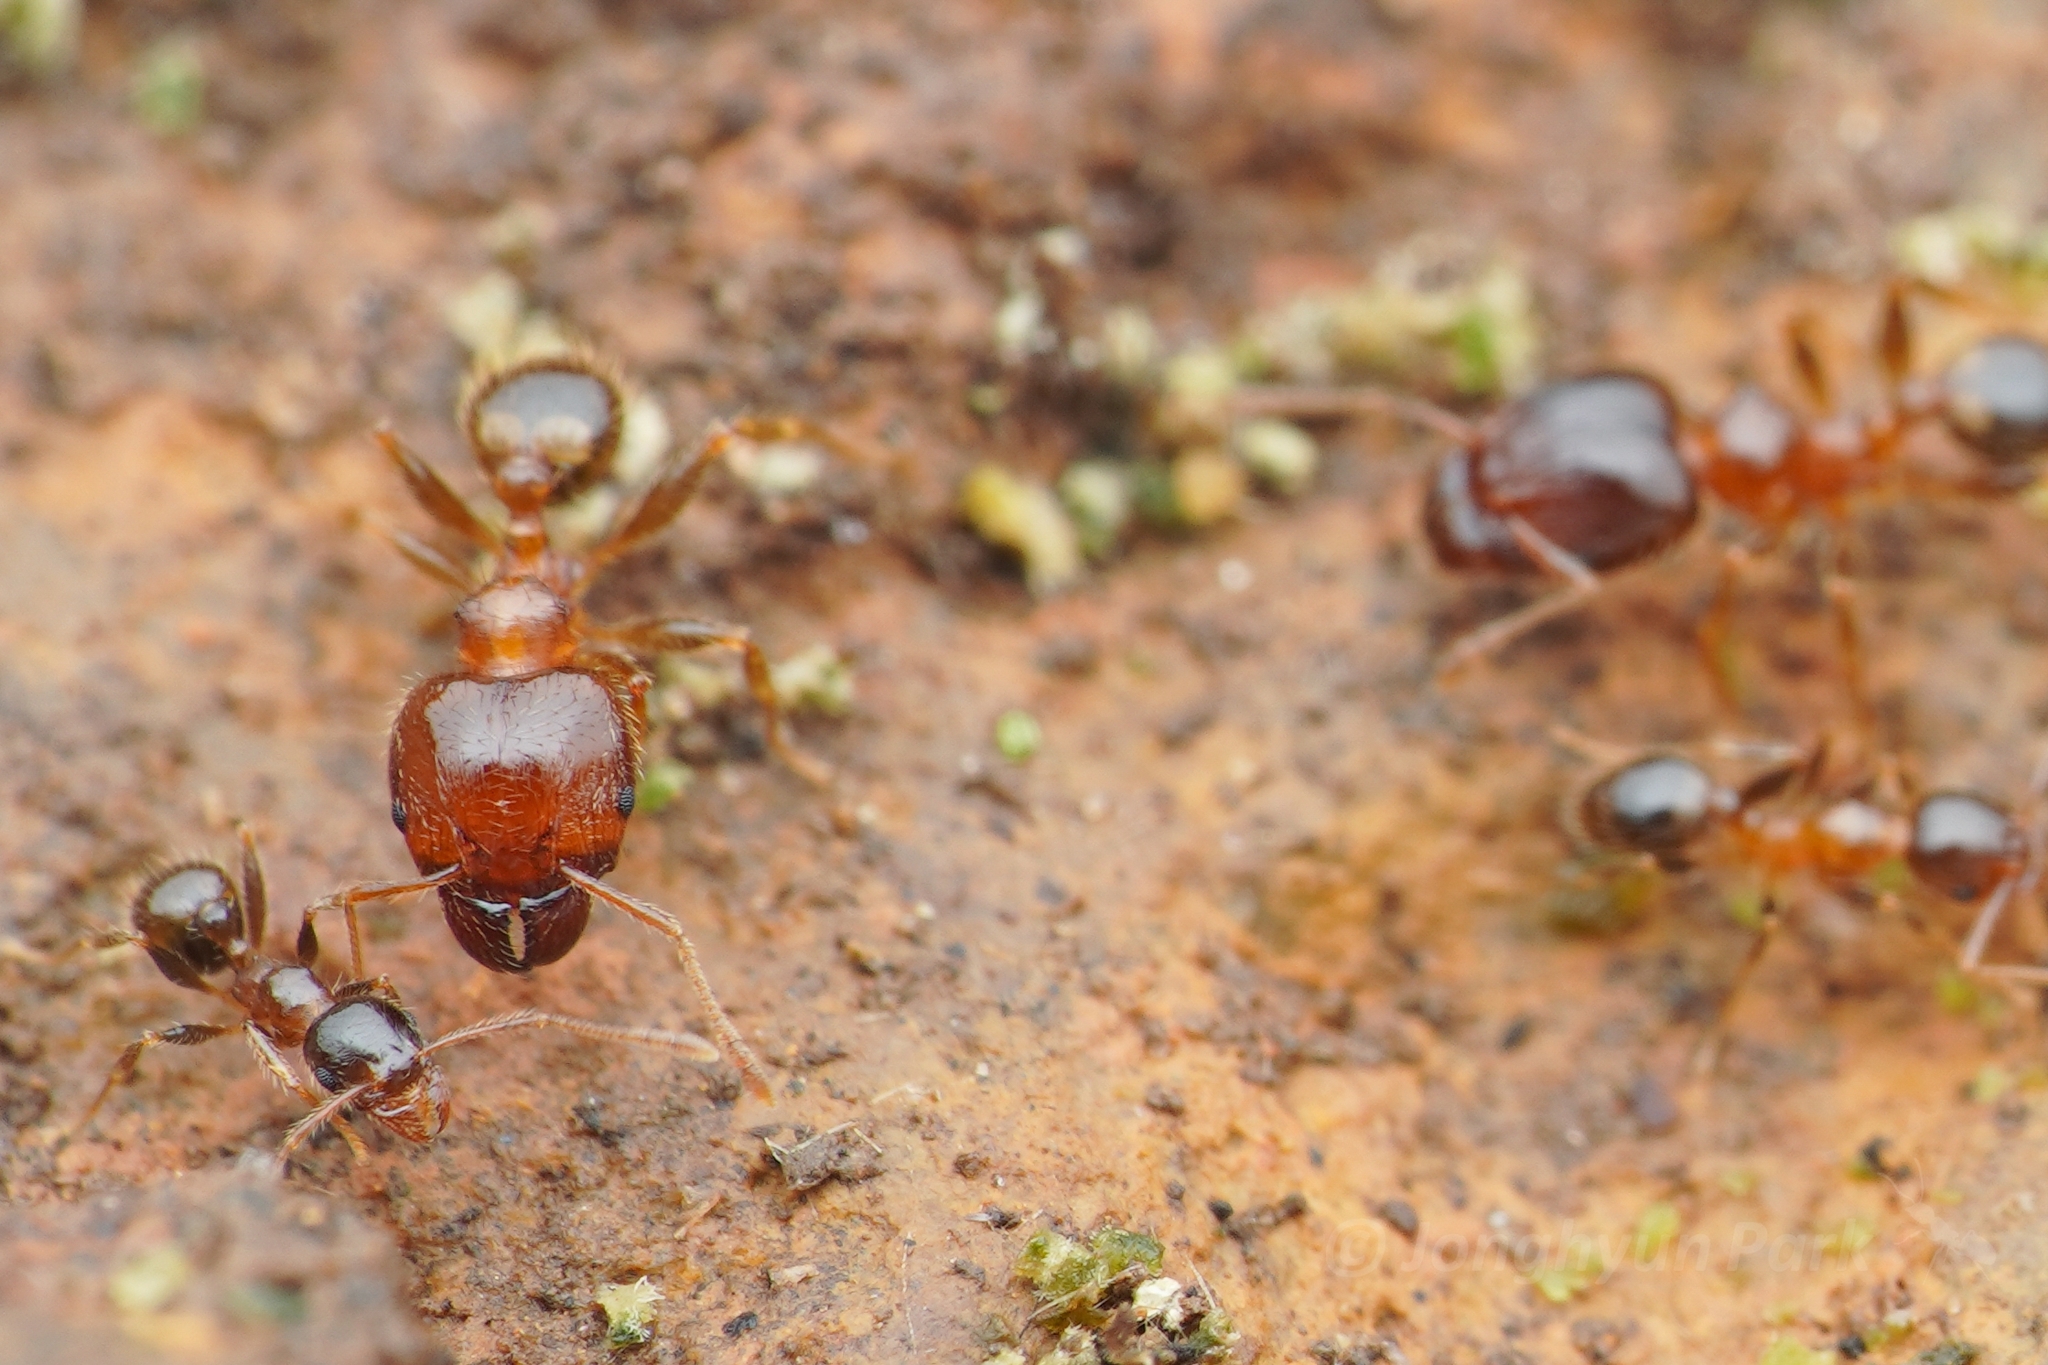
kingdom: Animalia
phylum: Arthropoda
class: Insecta
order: Hymenoptera
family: Formicidae
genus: Pheidole
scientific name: Pheidole megacephala
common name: Bigheaded ant
